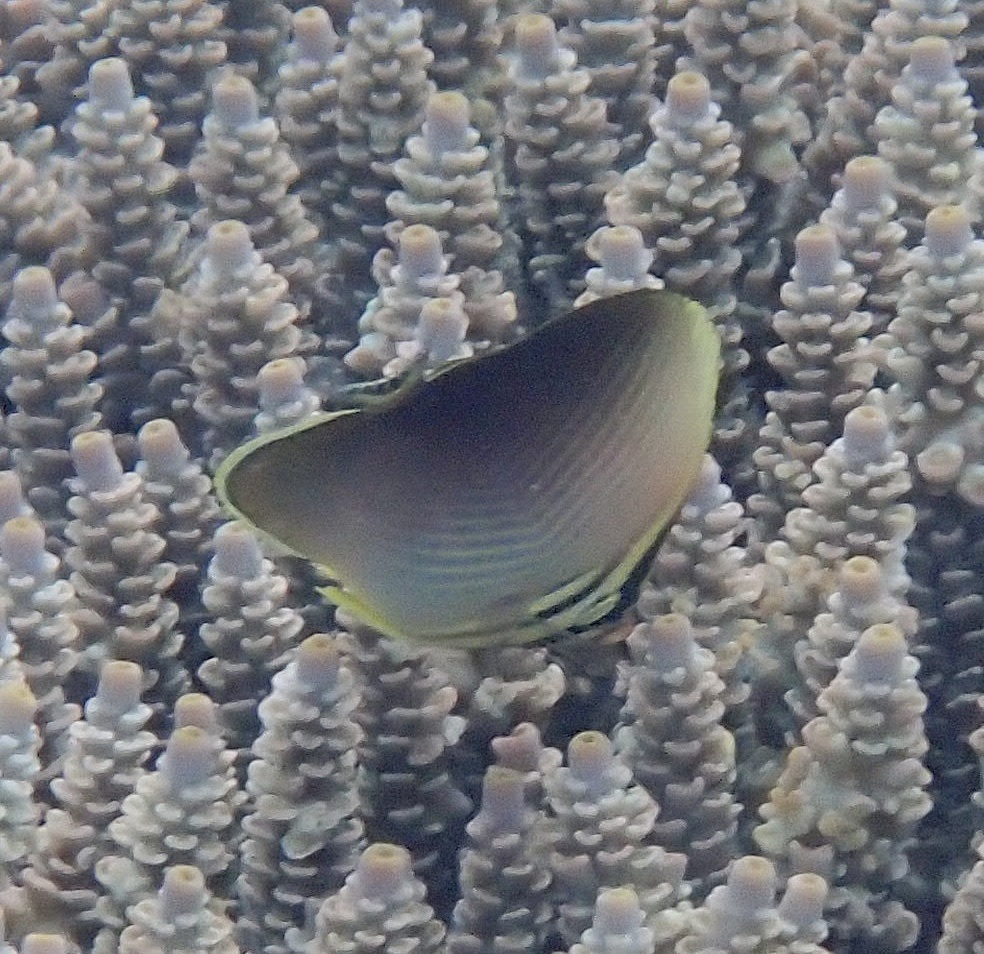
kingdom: Animalia
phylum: Chordata
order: Perciformes
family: Chaetodontidae
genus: Chaetodon
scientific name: Chaetodon baronessa
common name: Triangular butterflyfish
